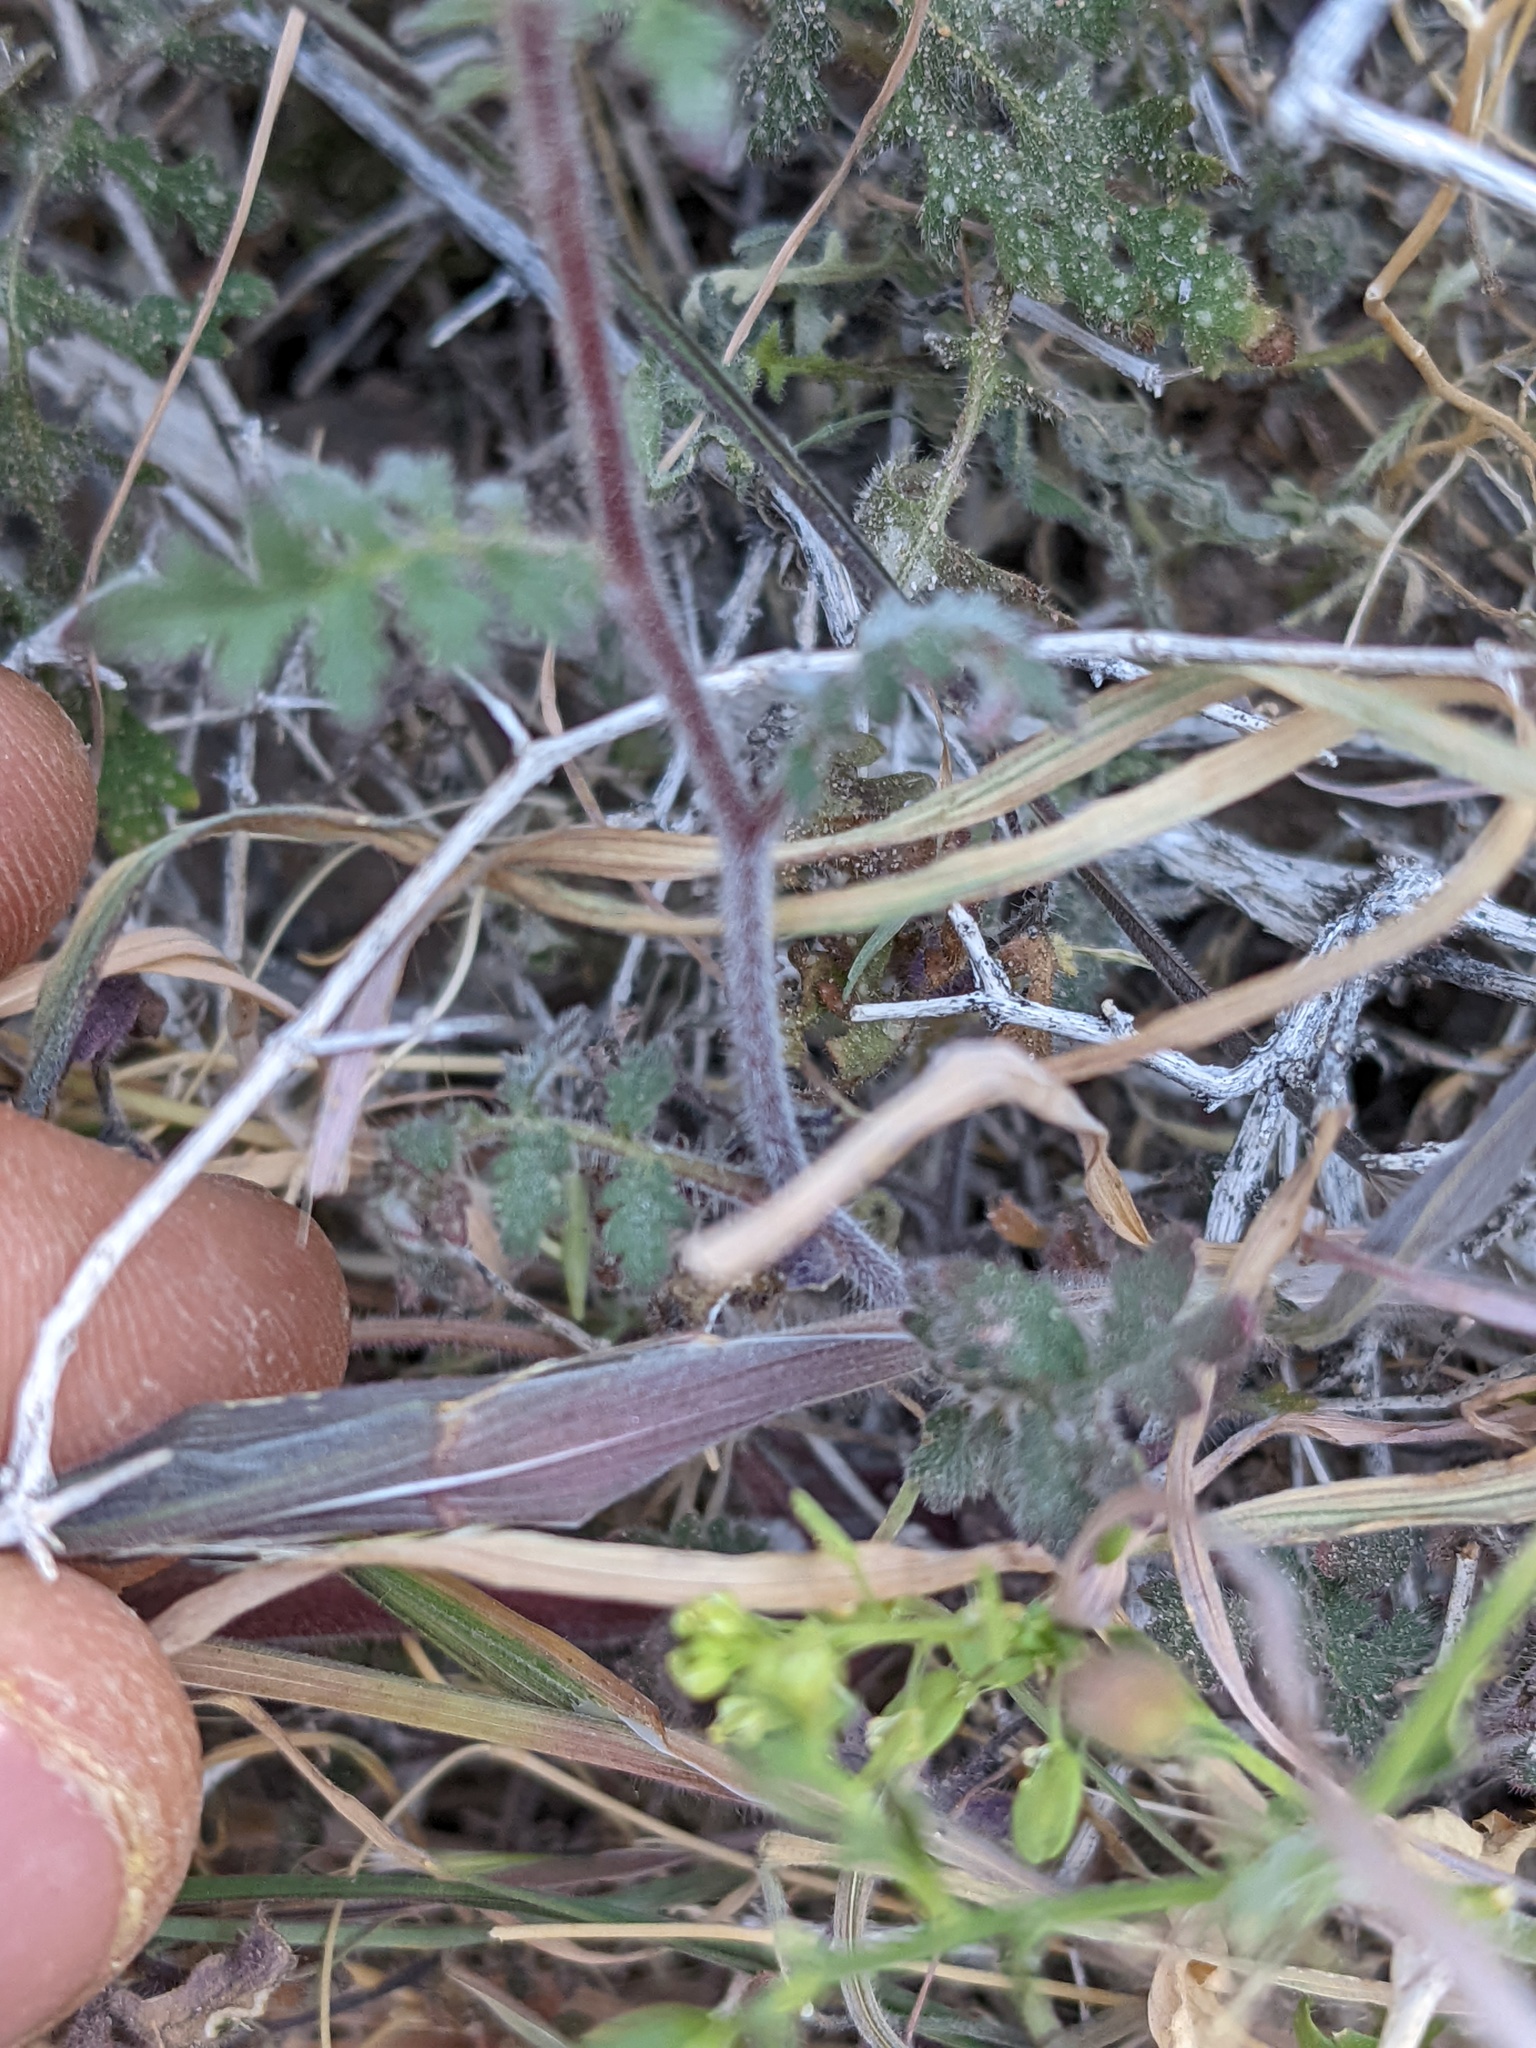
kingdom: Plantae
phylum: Tracheophyta
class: Magnoliopsida
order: Boraginales
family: Hydrophyllaceae
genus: Phacelia
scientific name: Phacelia vallis-mortae
